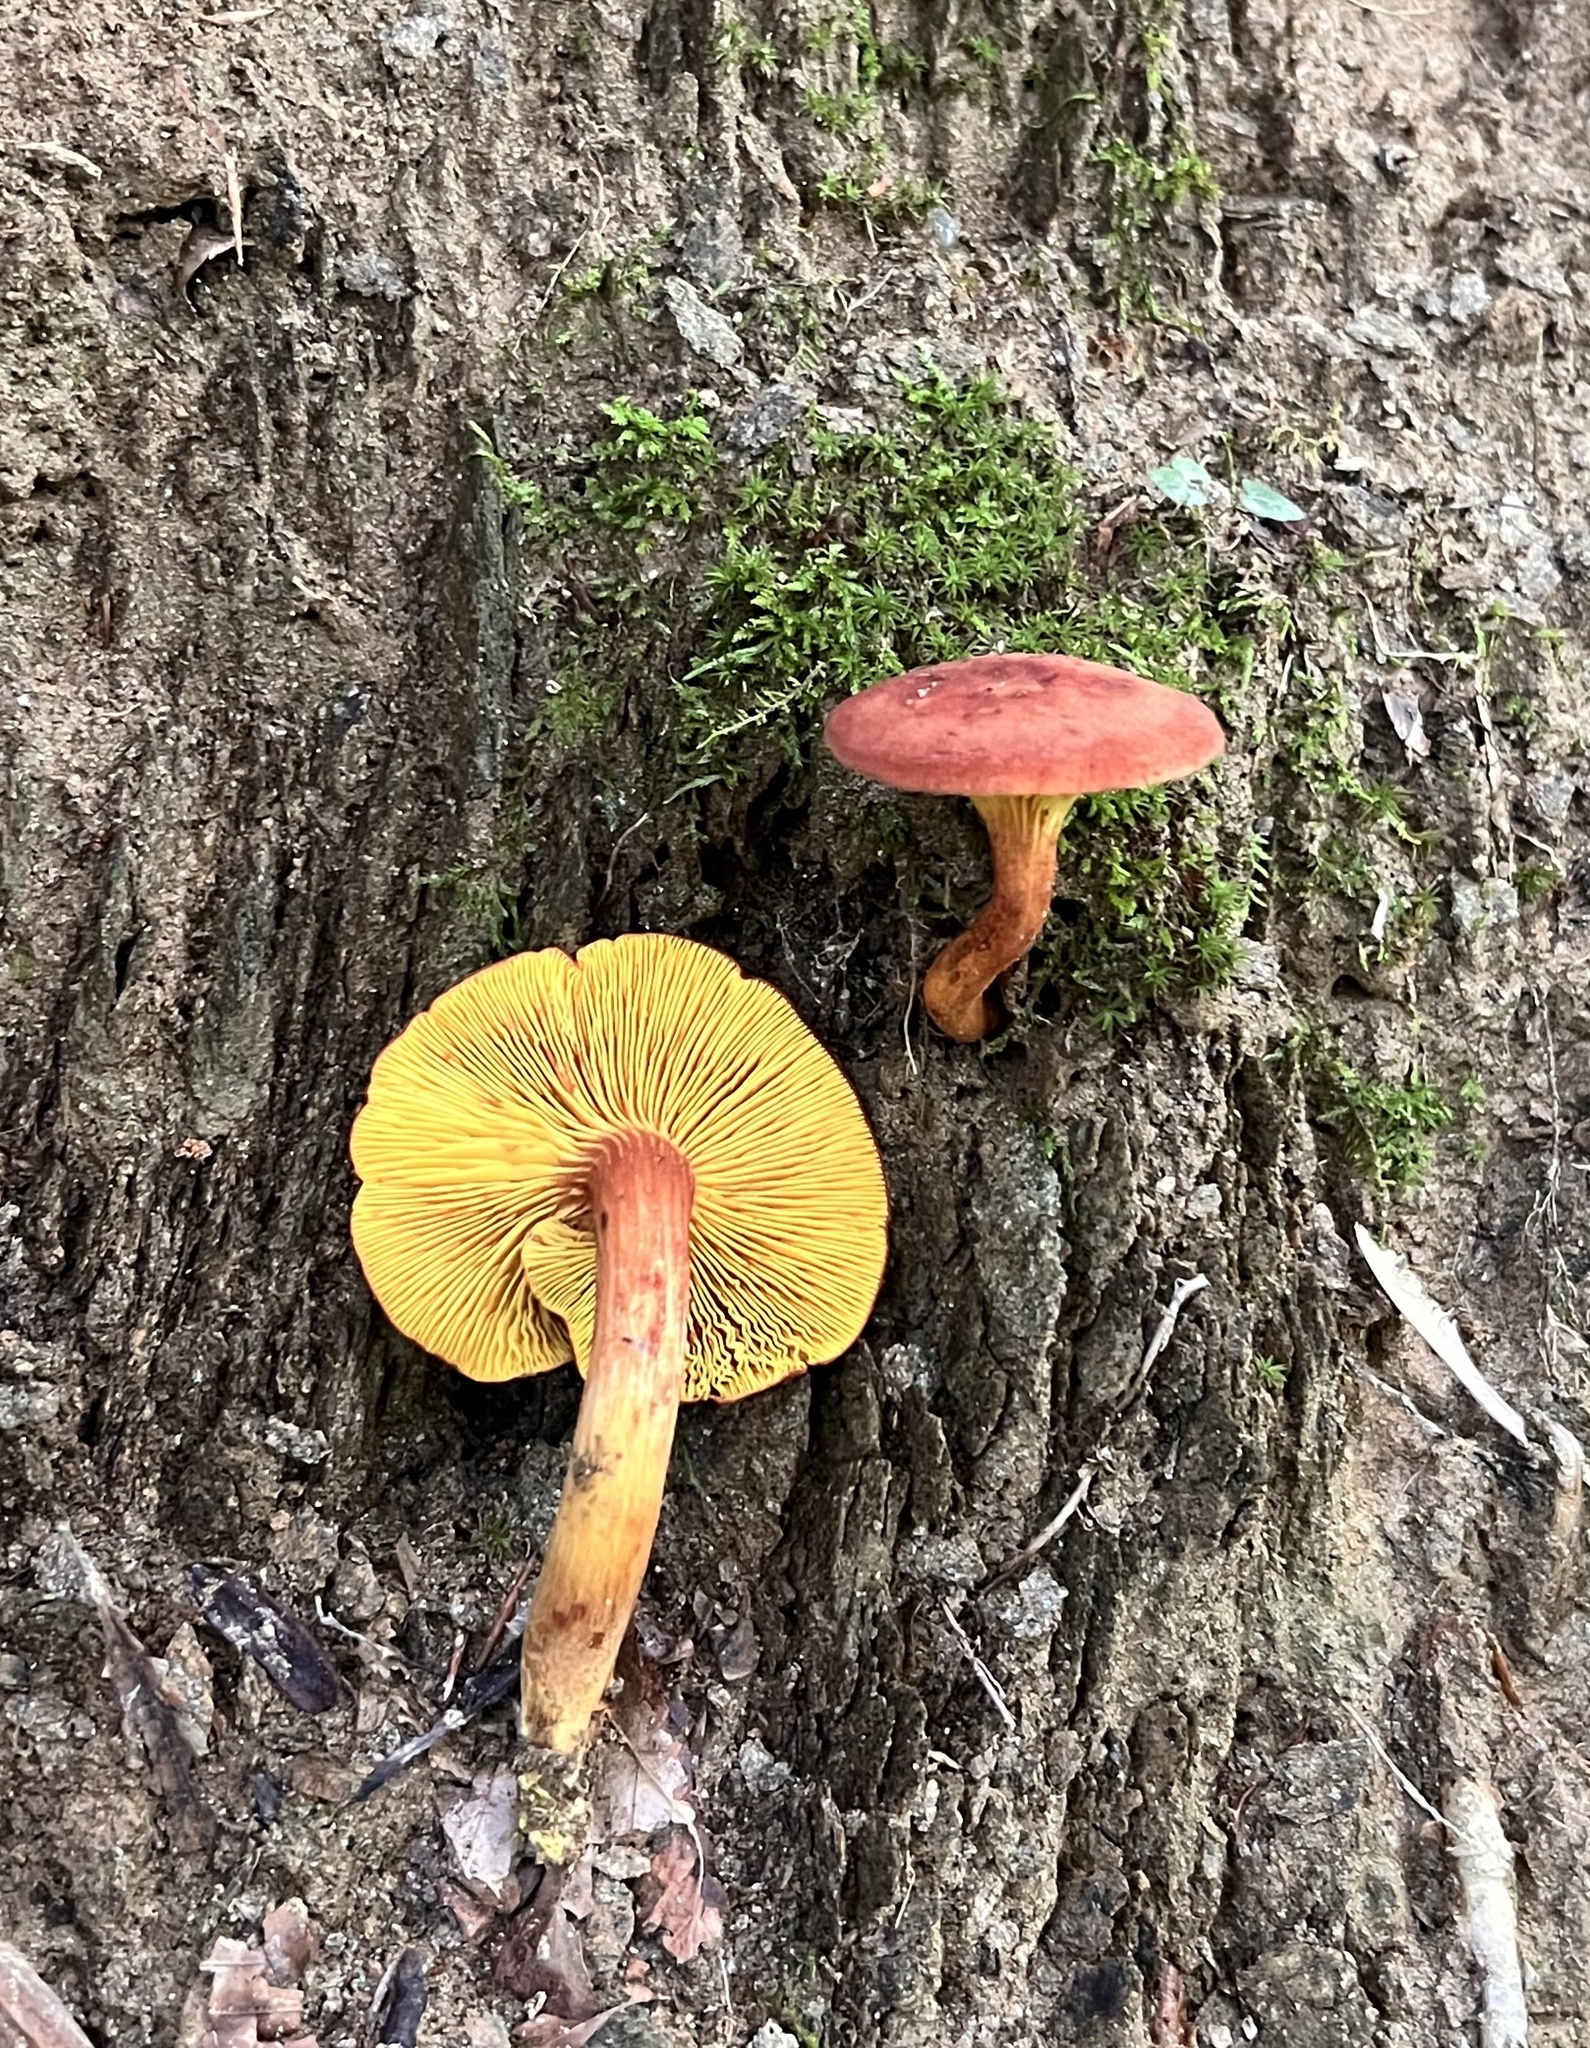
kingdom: Fungi
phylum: Basidiomycota
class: Agaricomycetes
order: Boletales
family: Boletaceae
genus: Phylloporus
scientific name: Phylloporus rhodoxanthus
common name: Golden gilled bolete
